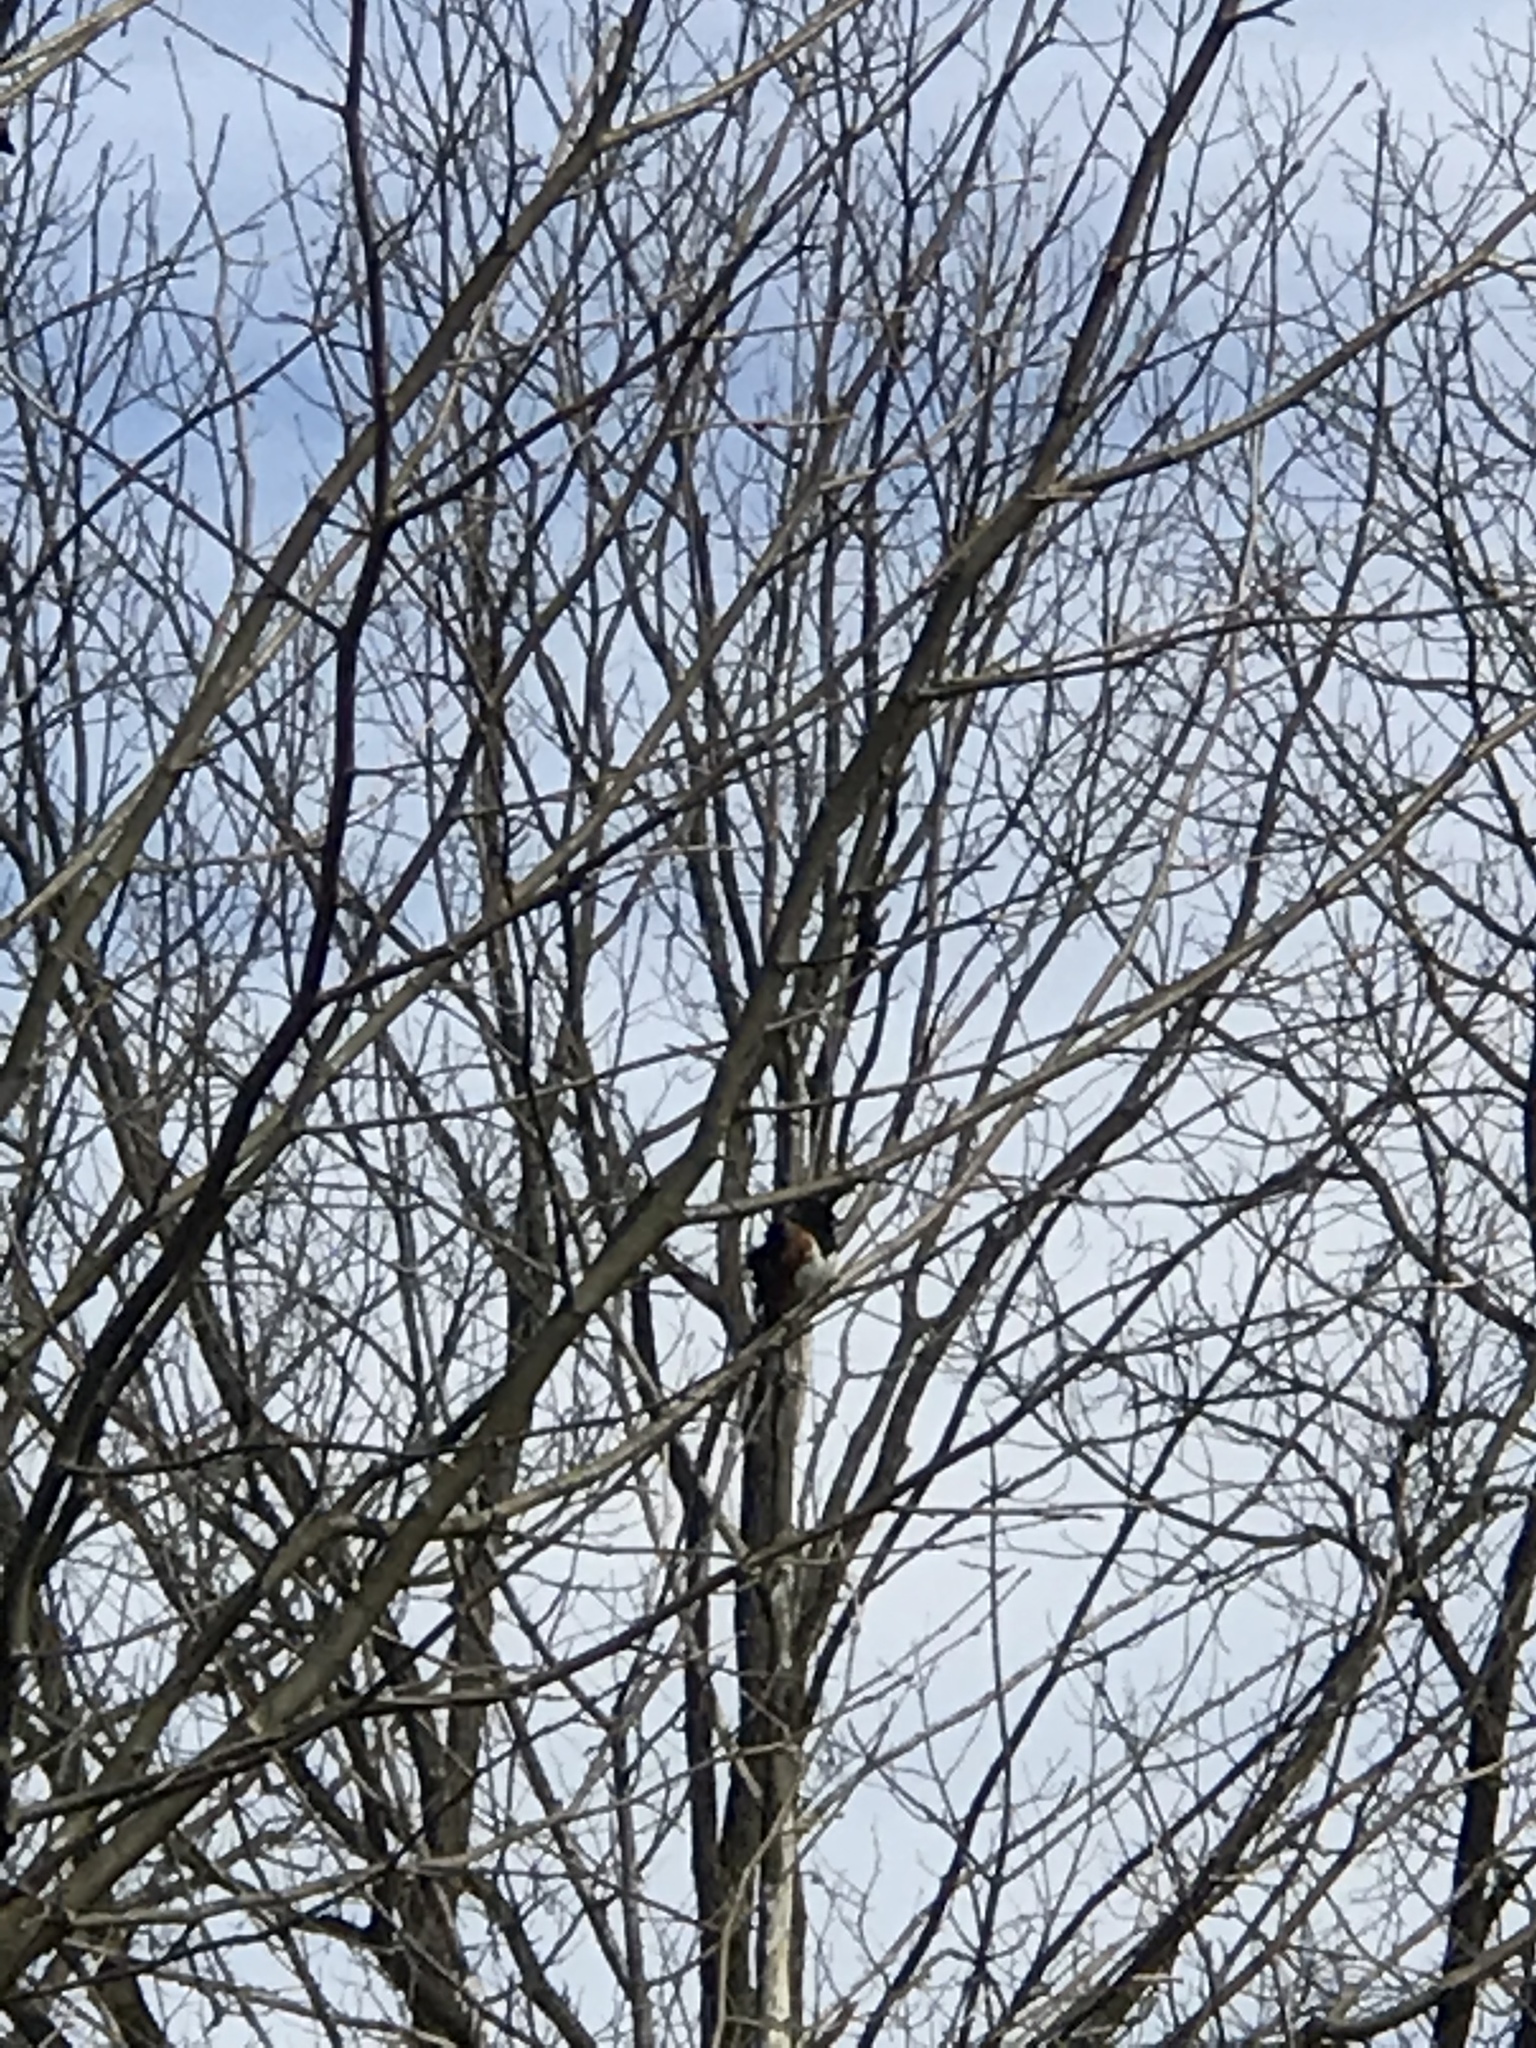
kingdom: Animalia
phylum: Chordata
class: Aves
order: Passeriformes
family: Passerellidae
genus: Pipilo
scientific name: Pipilo erythrophthalmus
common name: Eastern towhee
